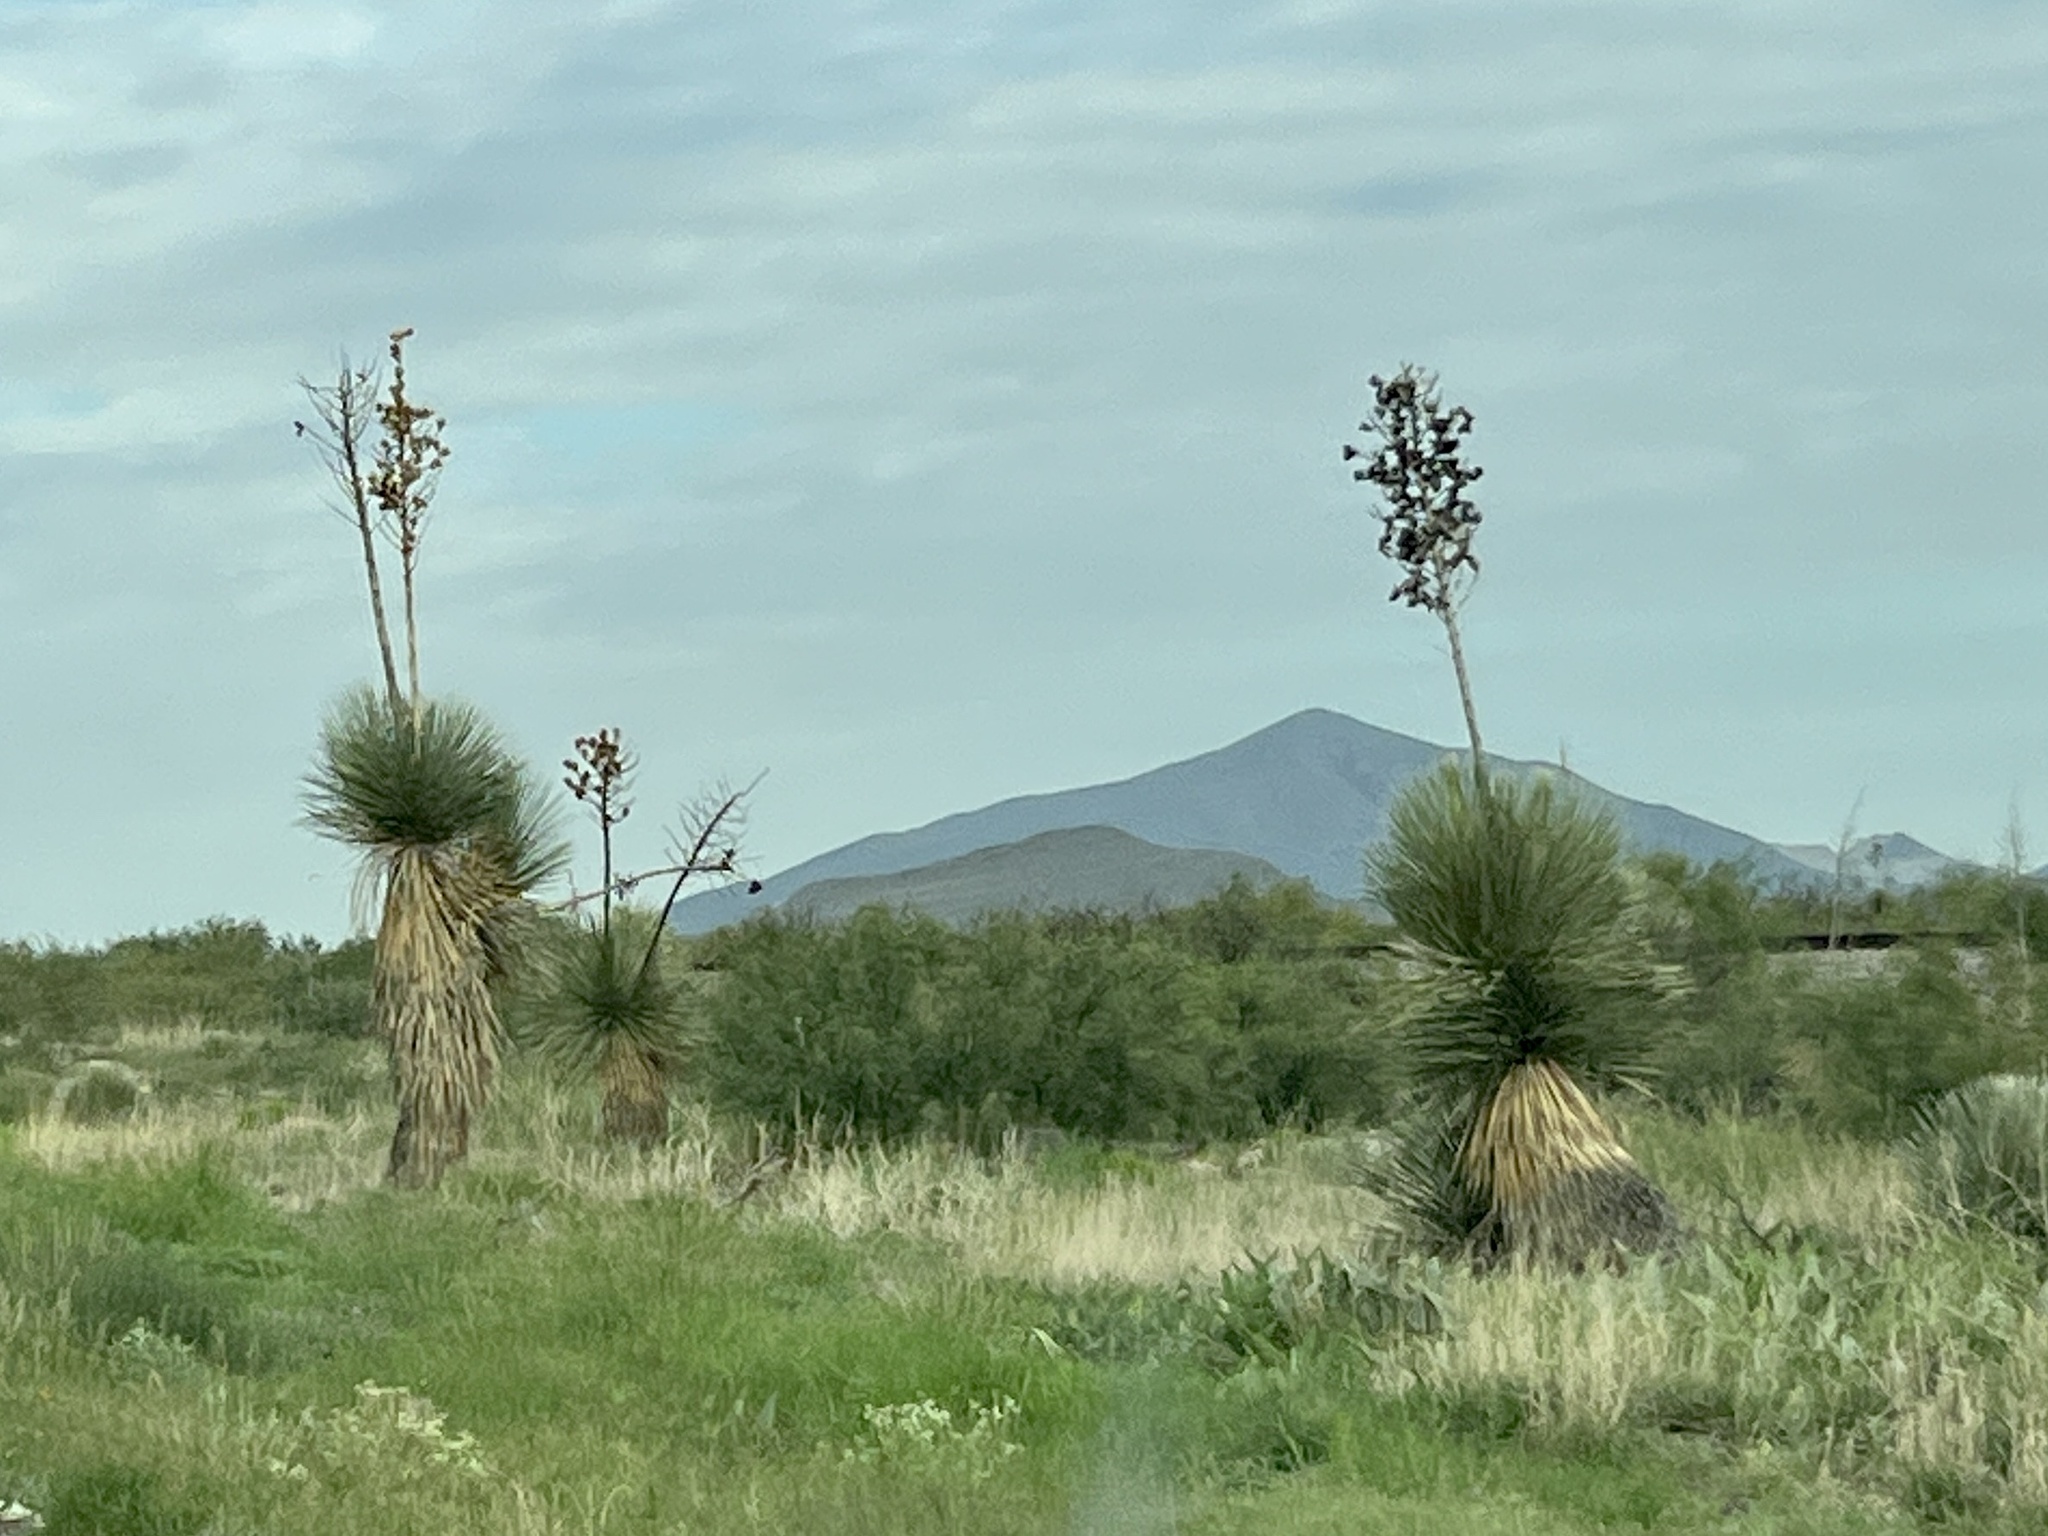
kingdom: Plantae
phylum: Tracheophyta
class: Liliopsida
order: Asparagales
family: Asparagaceae
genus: Yucca
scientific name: Yucca elata
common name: Palmella
